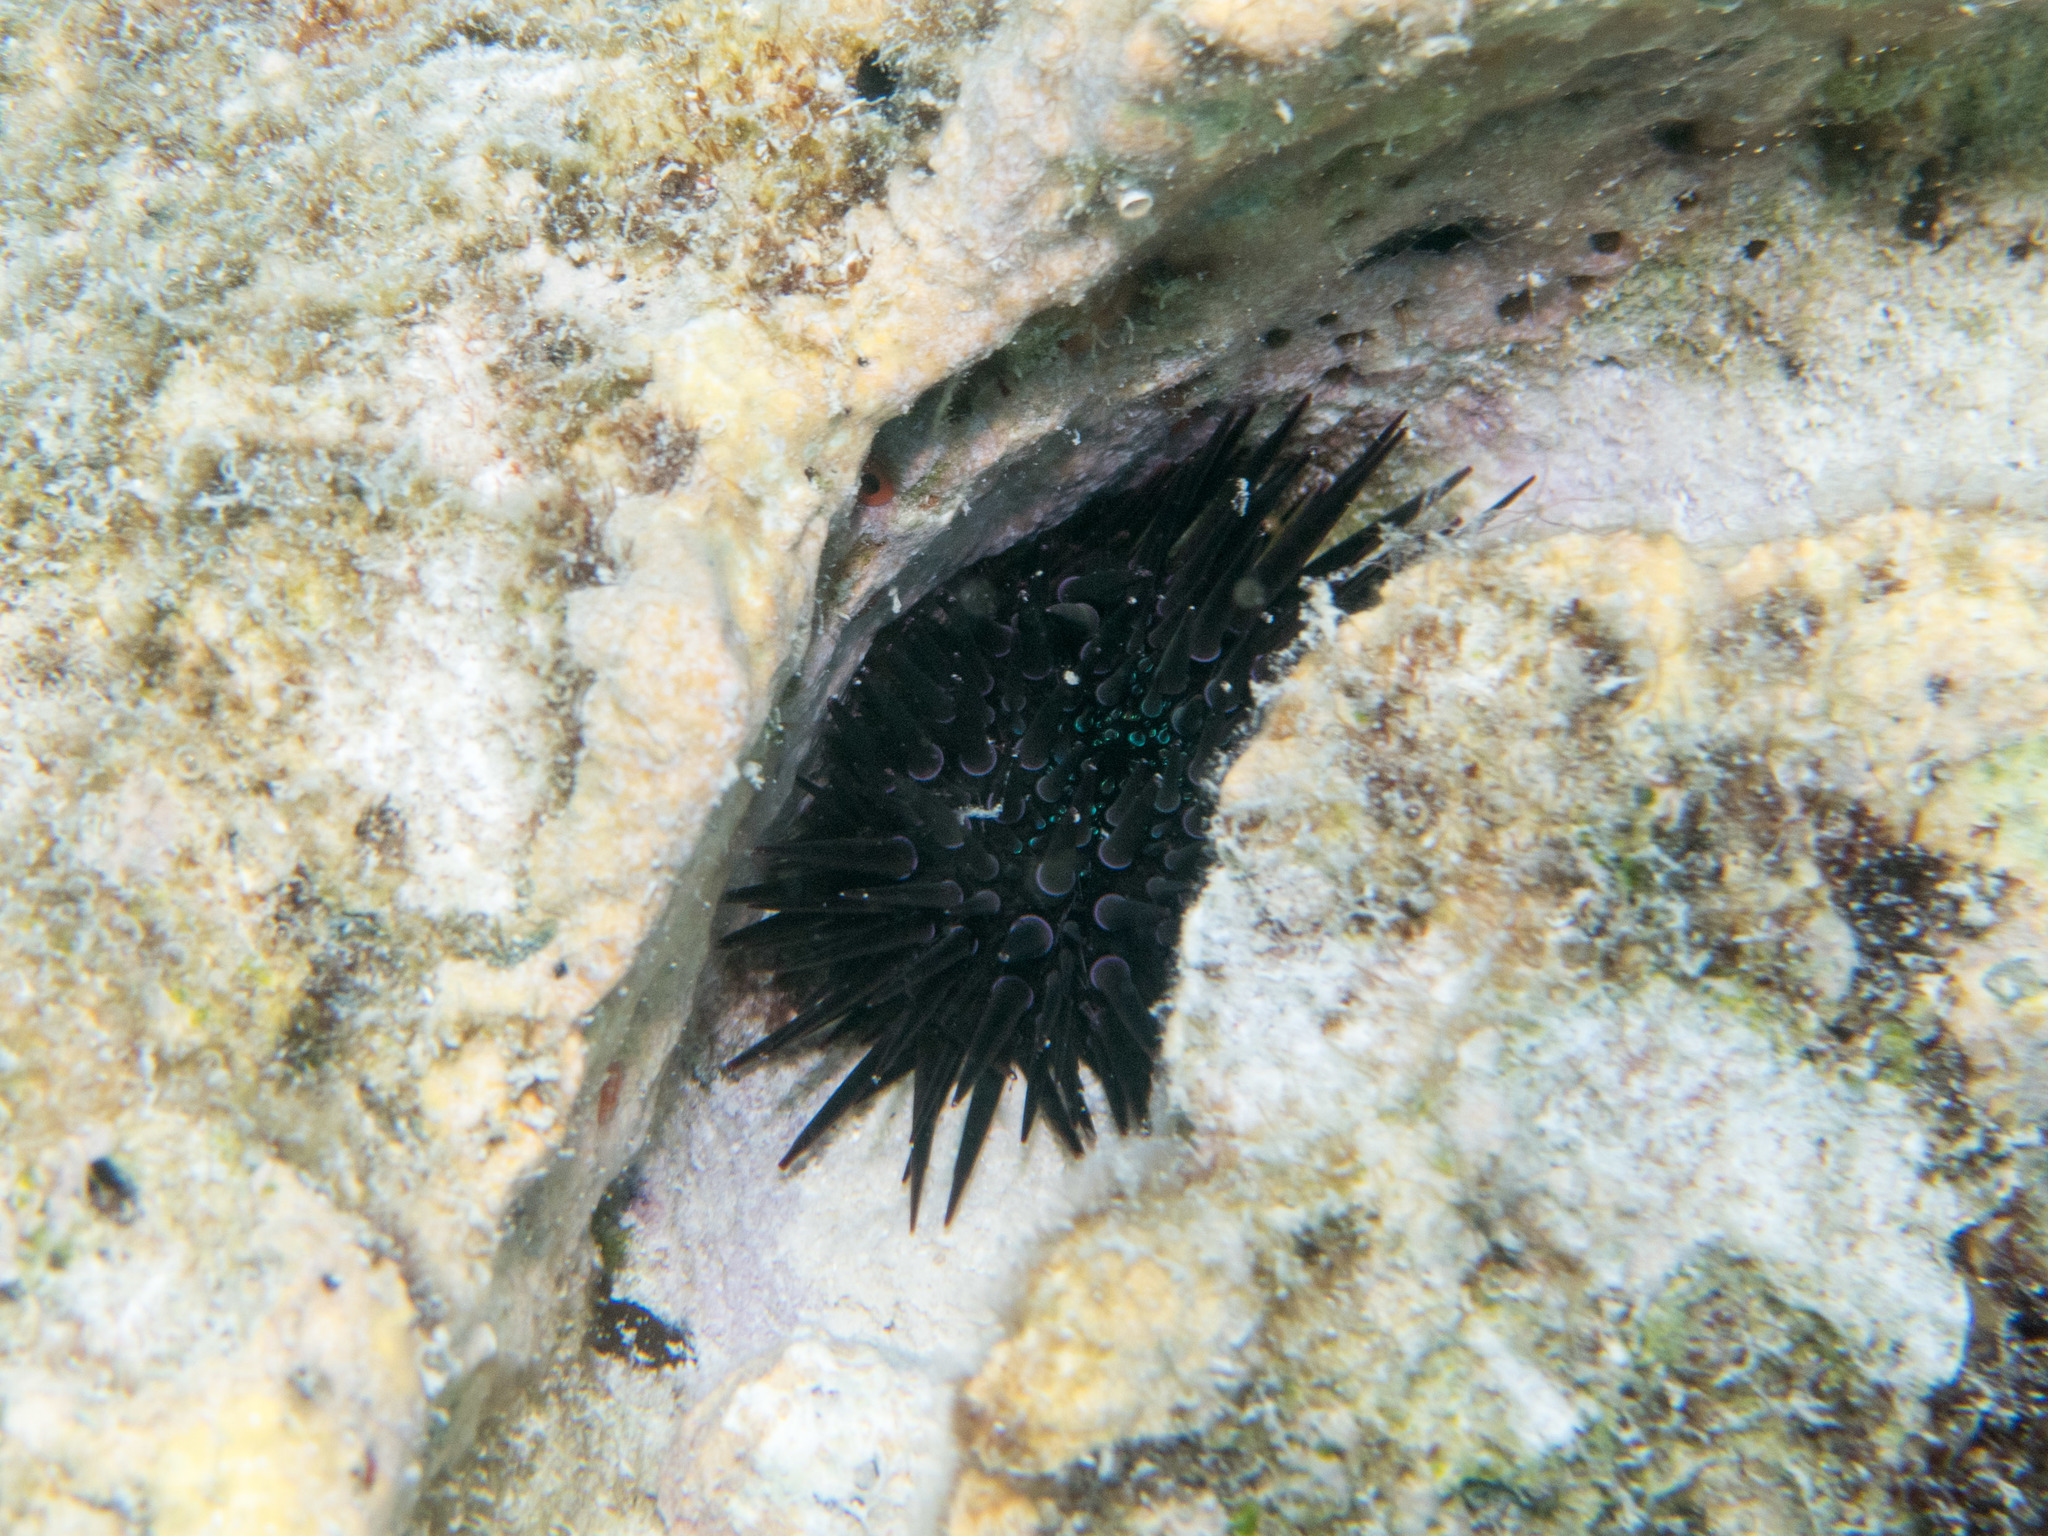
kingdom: Animalia
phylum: Echinodermata
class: Echinoidea
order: Camarodonta
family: Echinometridae
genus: Echinometra
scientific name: Echinometra mathaei
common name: Rock-boring urchin
